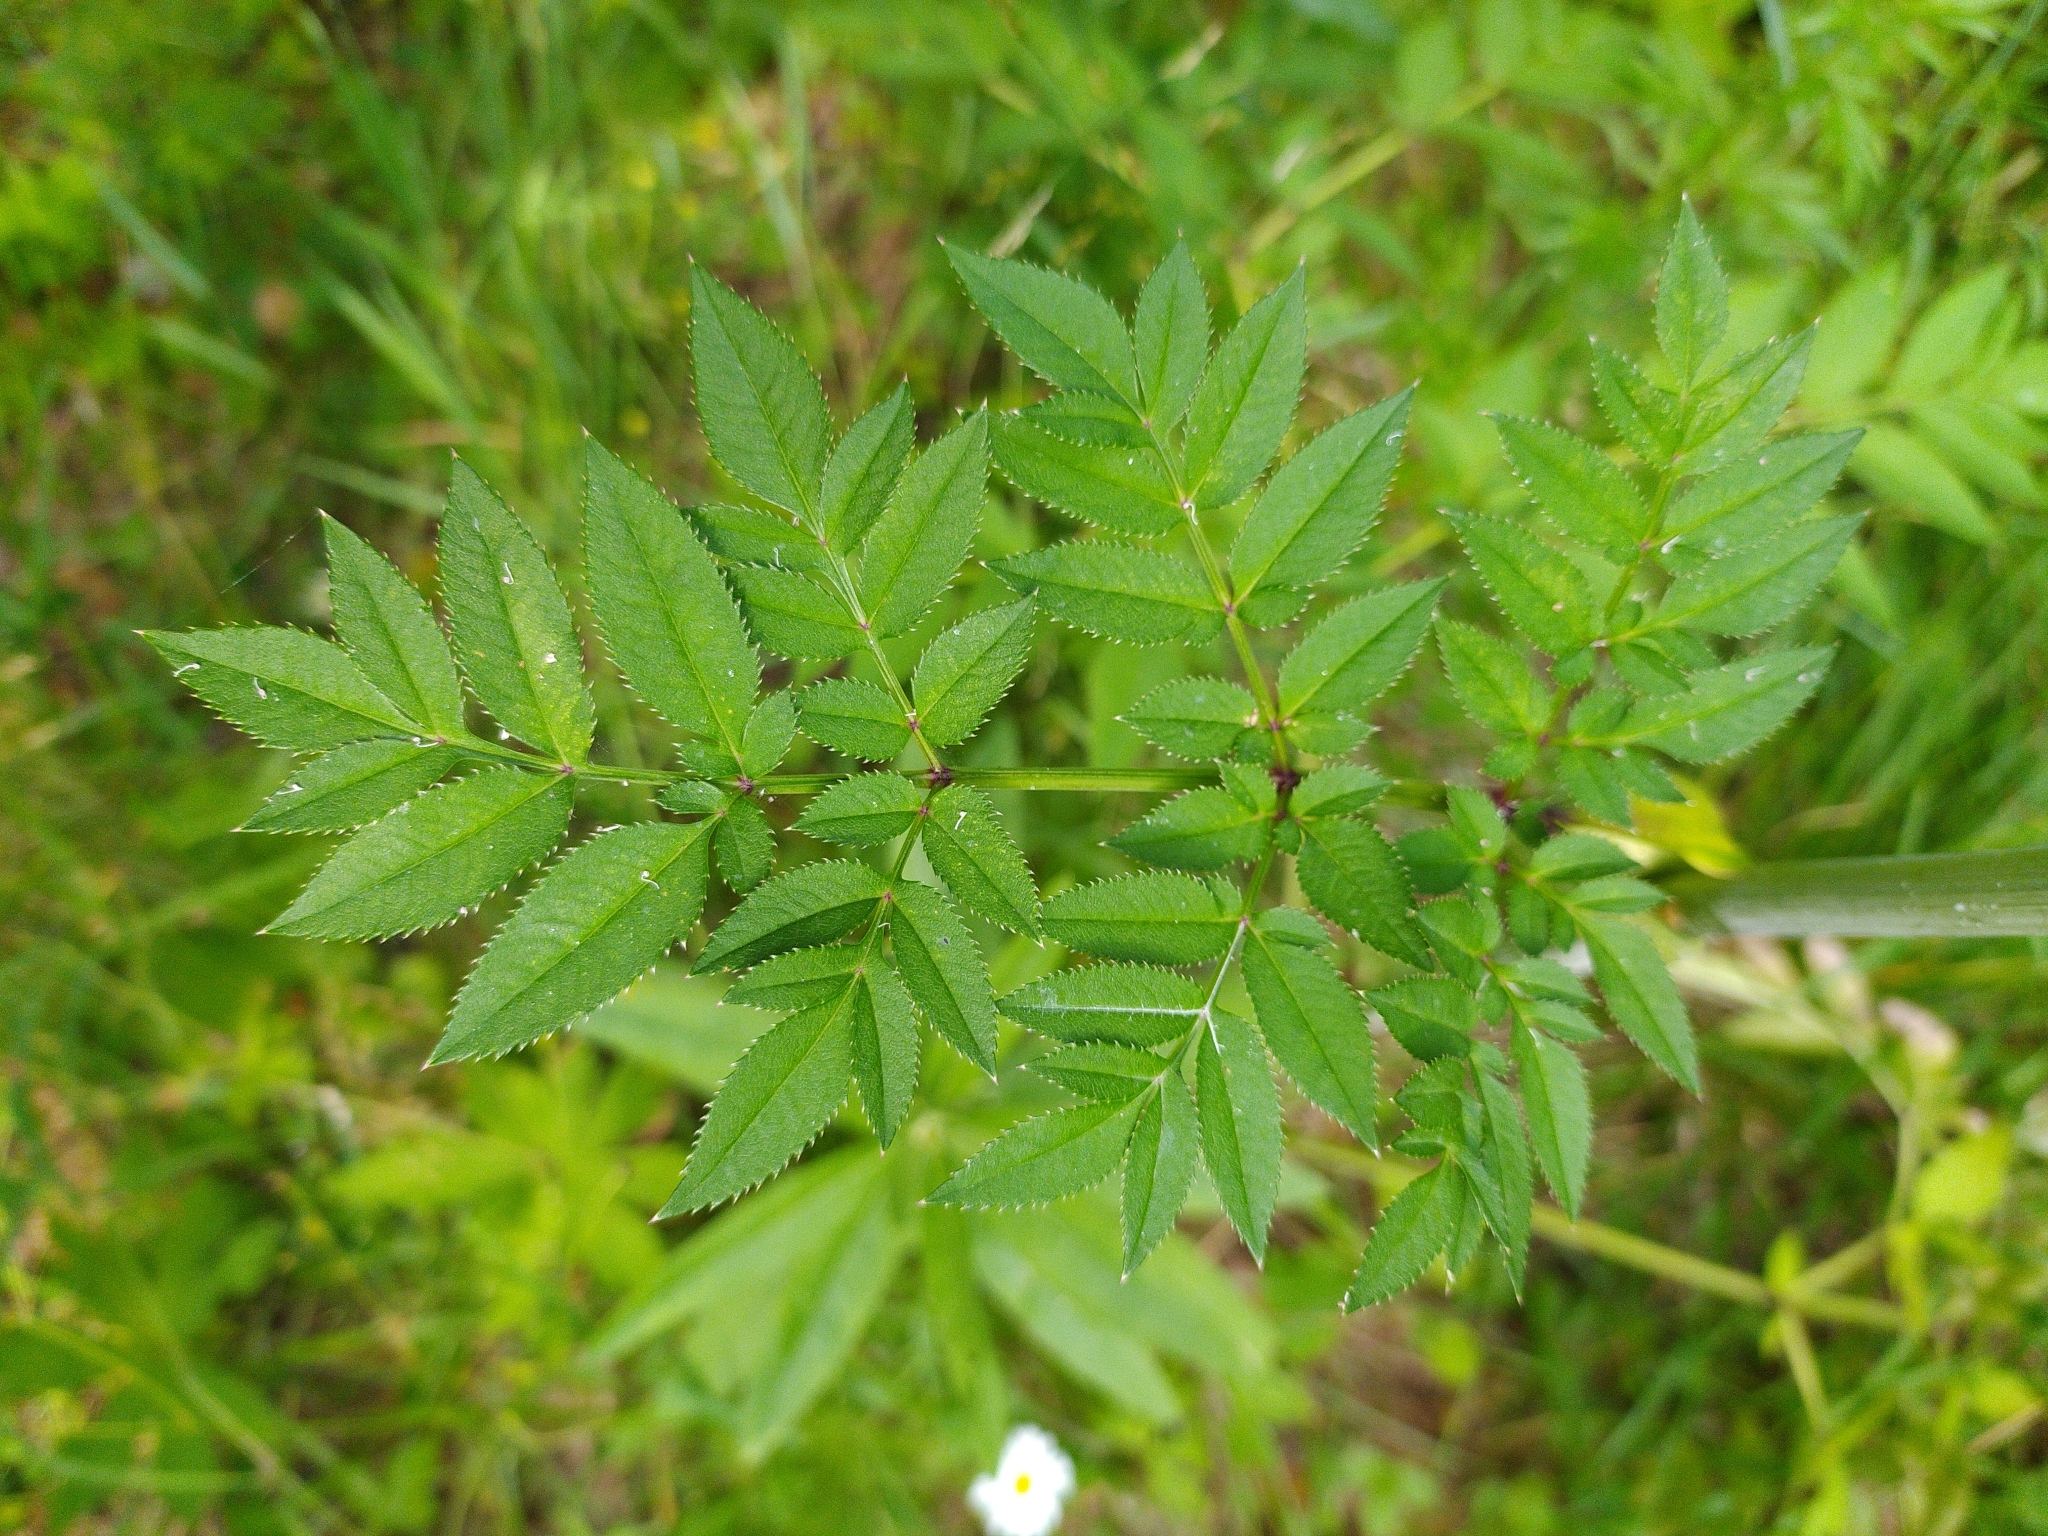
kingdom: Plantae
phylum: Tracheophyta
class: Magnoliopsida
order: Apiales
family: Apiaceae
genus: Angelica
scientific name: Angelica sylvestris
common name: Wild angelica
